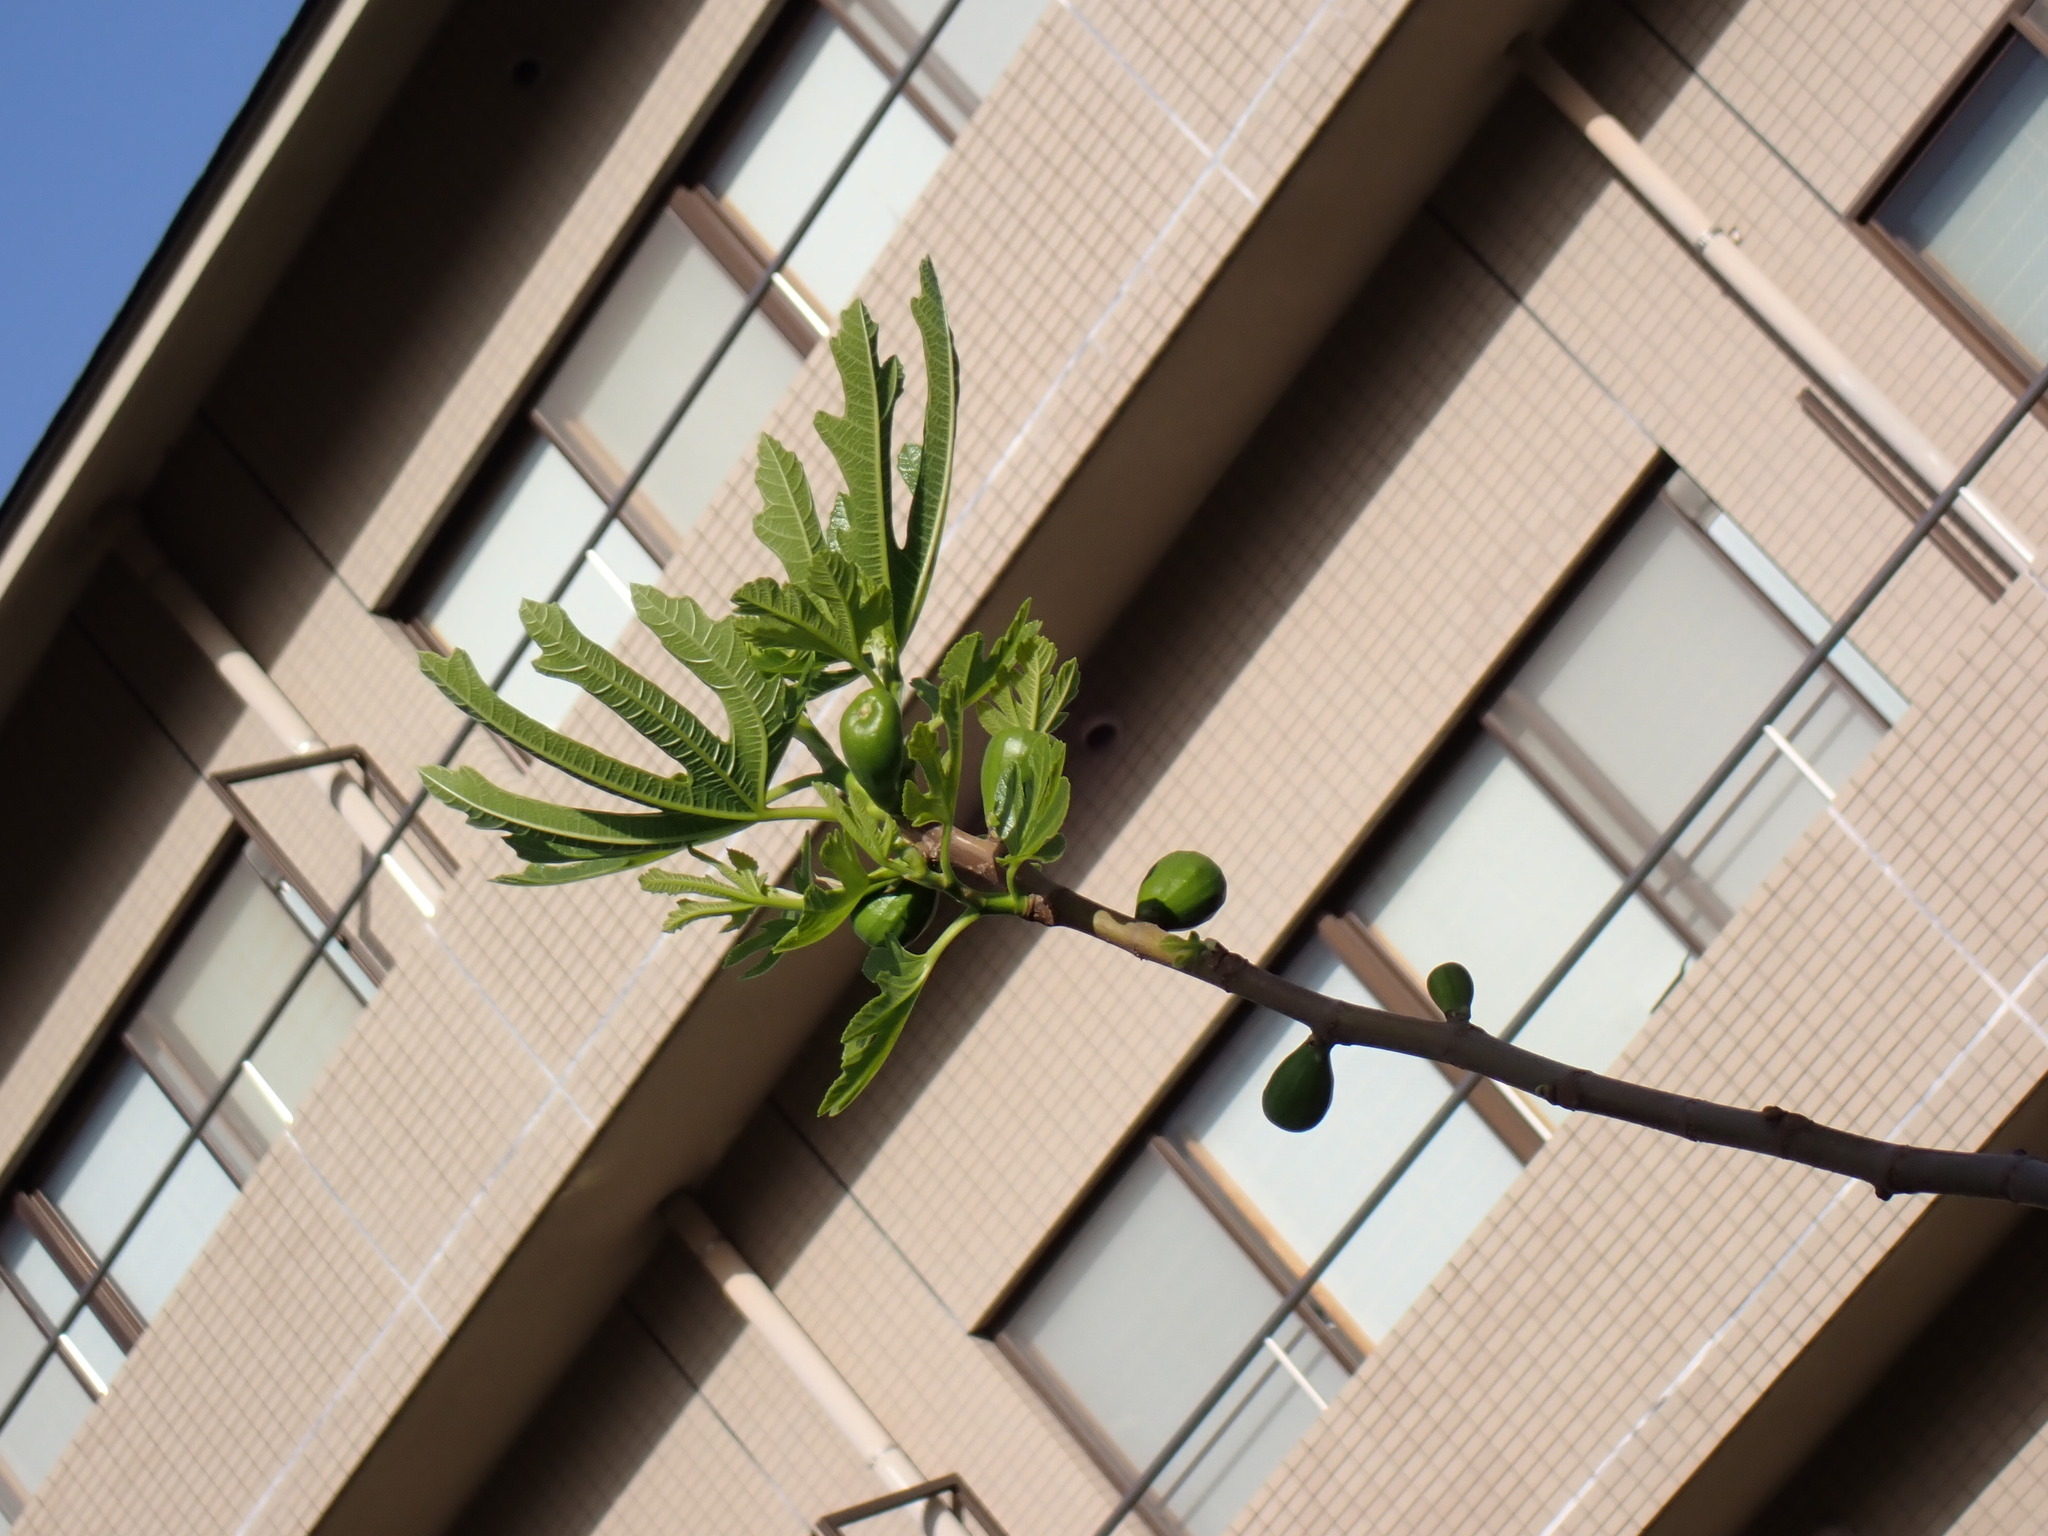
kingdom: Plantae
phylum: Tracheophyta
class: Magnoliopsida
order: Rosales
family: Moraceae
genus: Ficus
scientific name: Ficus carica
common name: Fig
